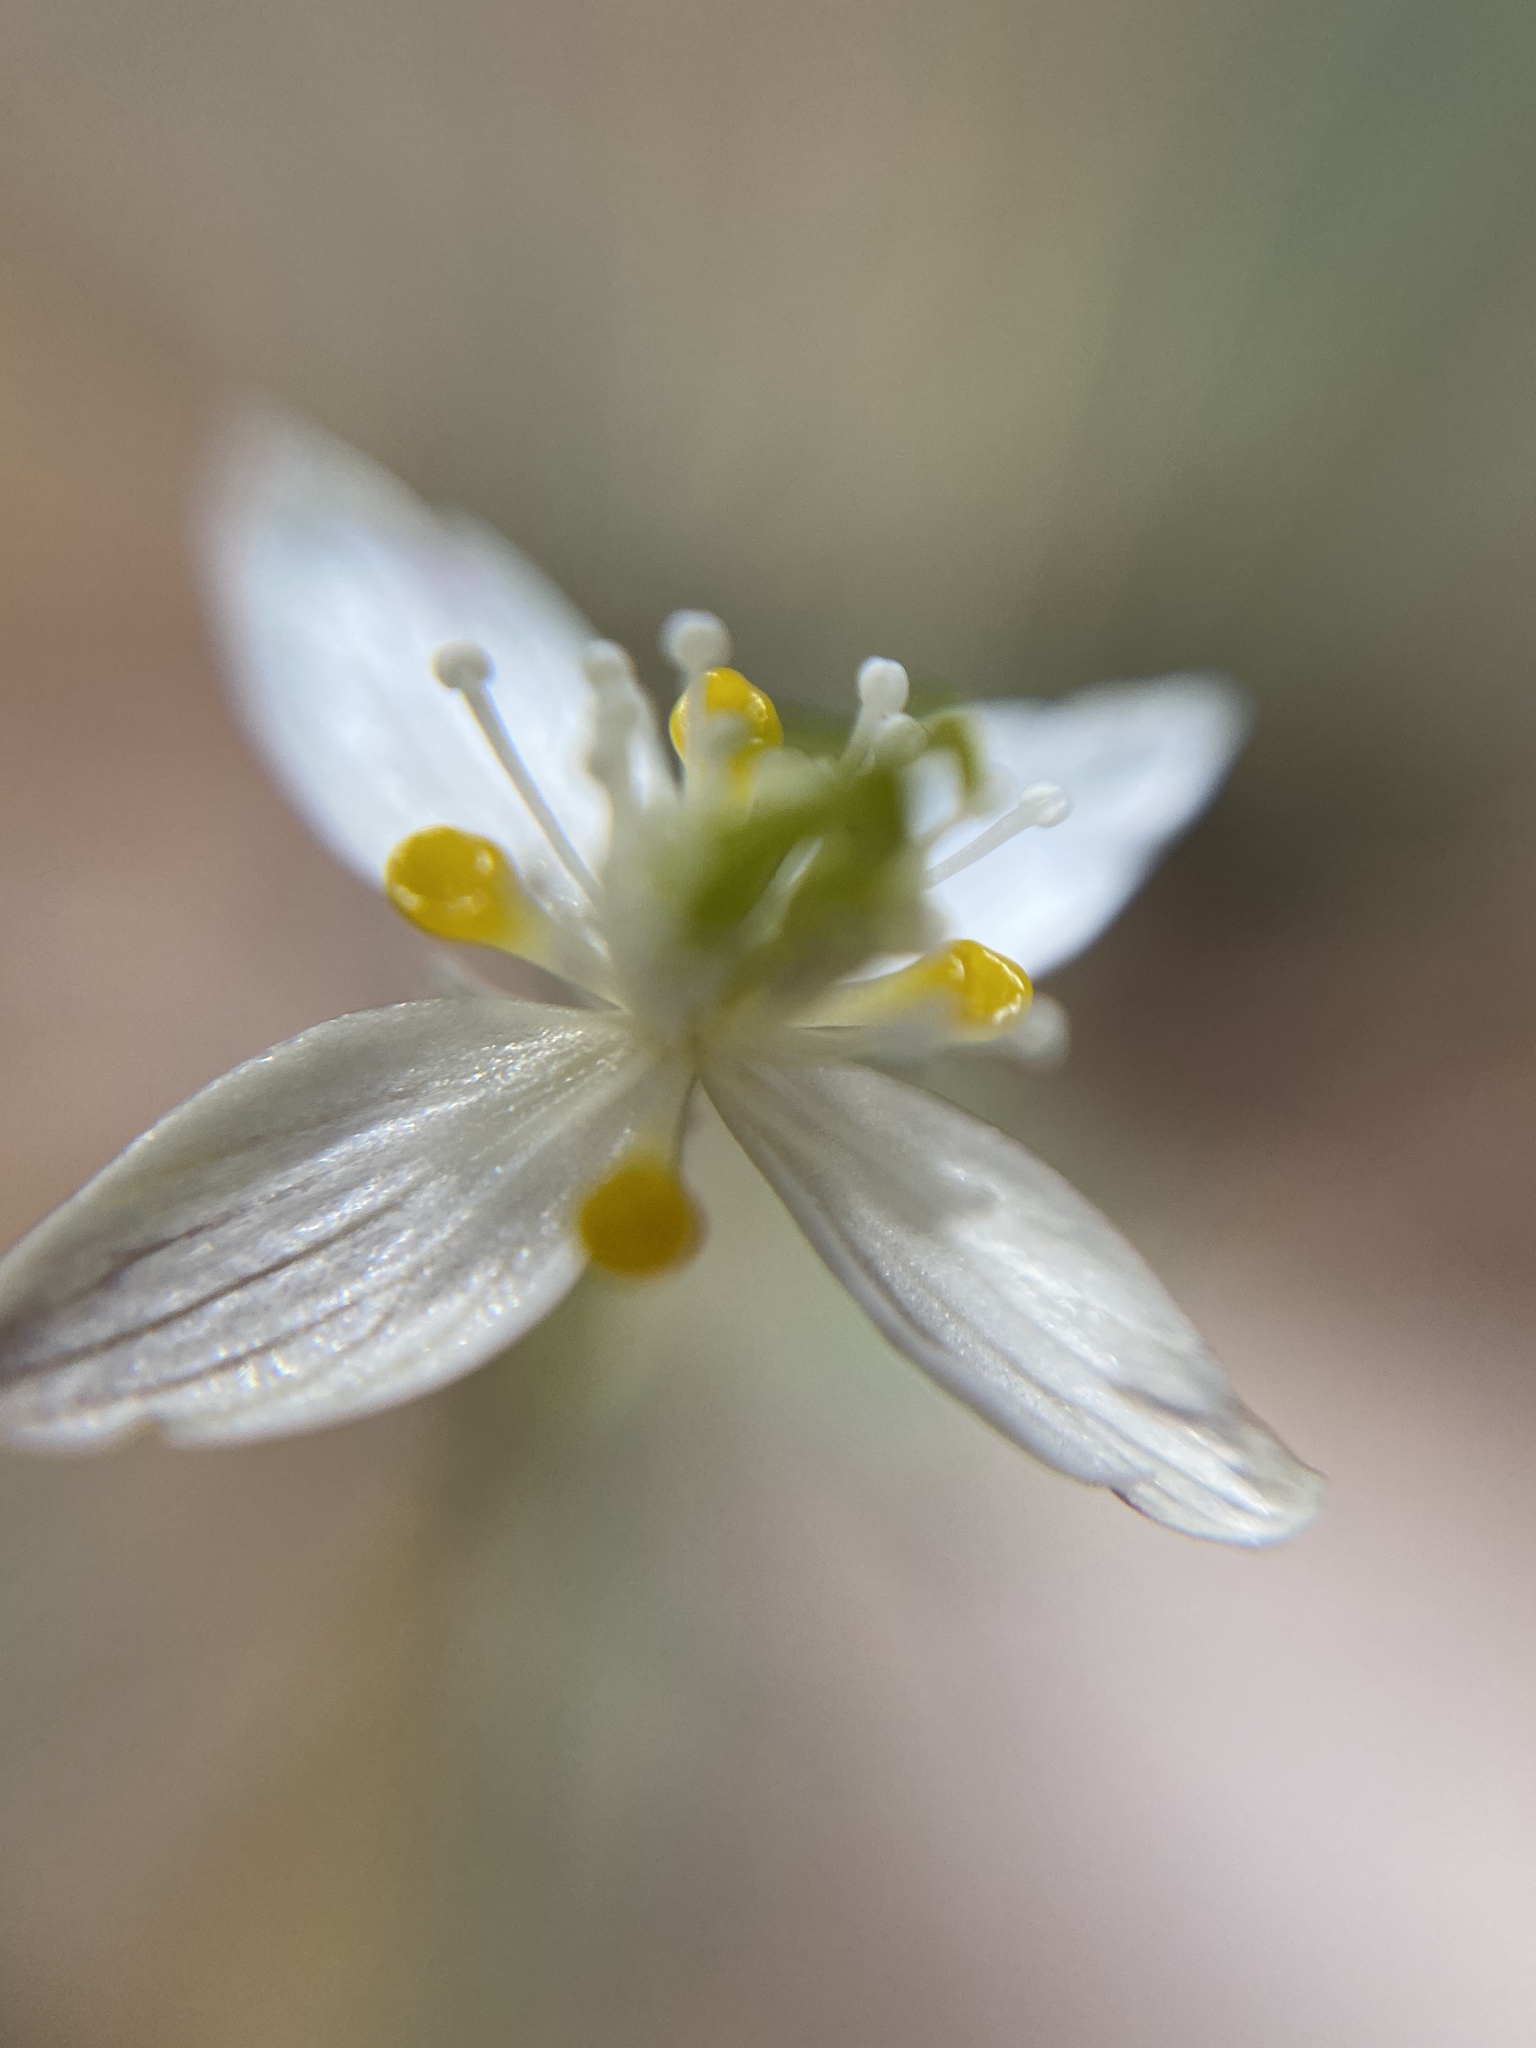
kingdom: Plantae
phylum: Tracheophyta
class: Magnoliopsida
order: Ranunculales
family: Ranunculaceae
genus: Coptis
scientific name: Coptis trifolia
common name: Canker-root
